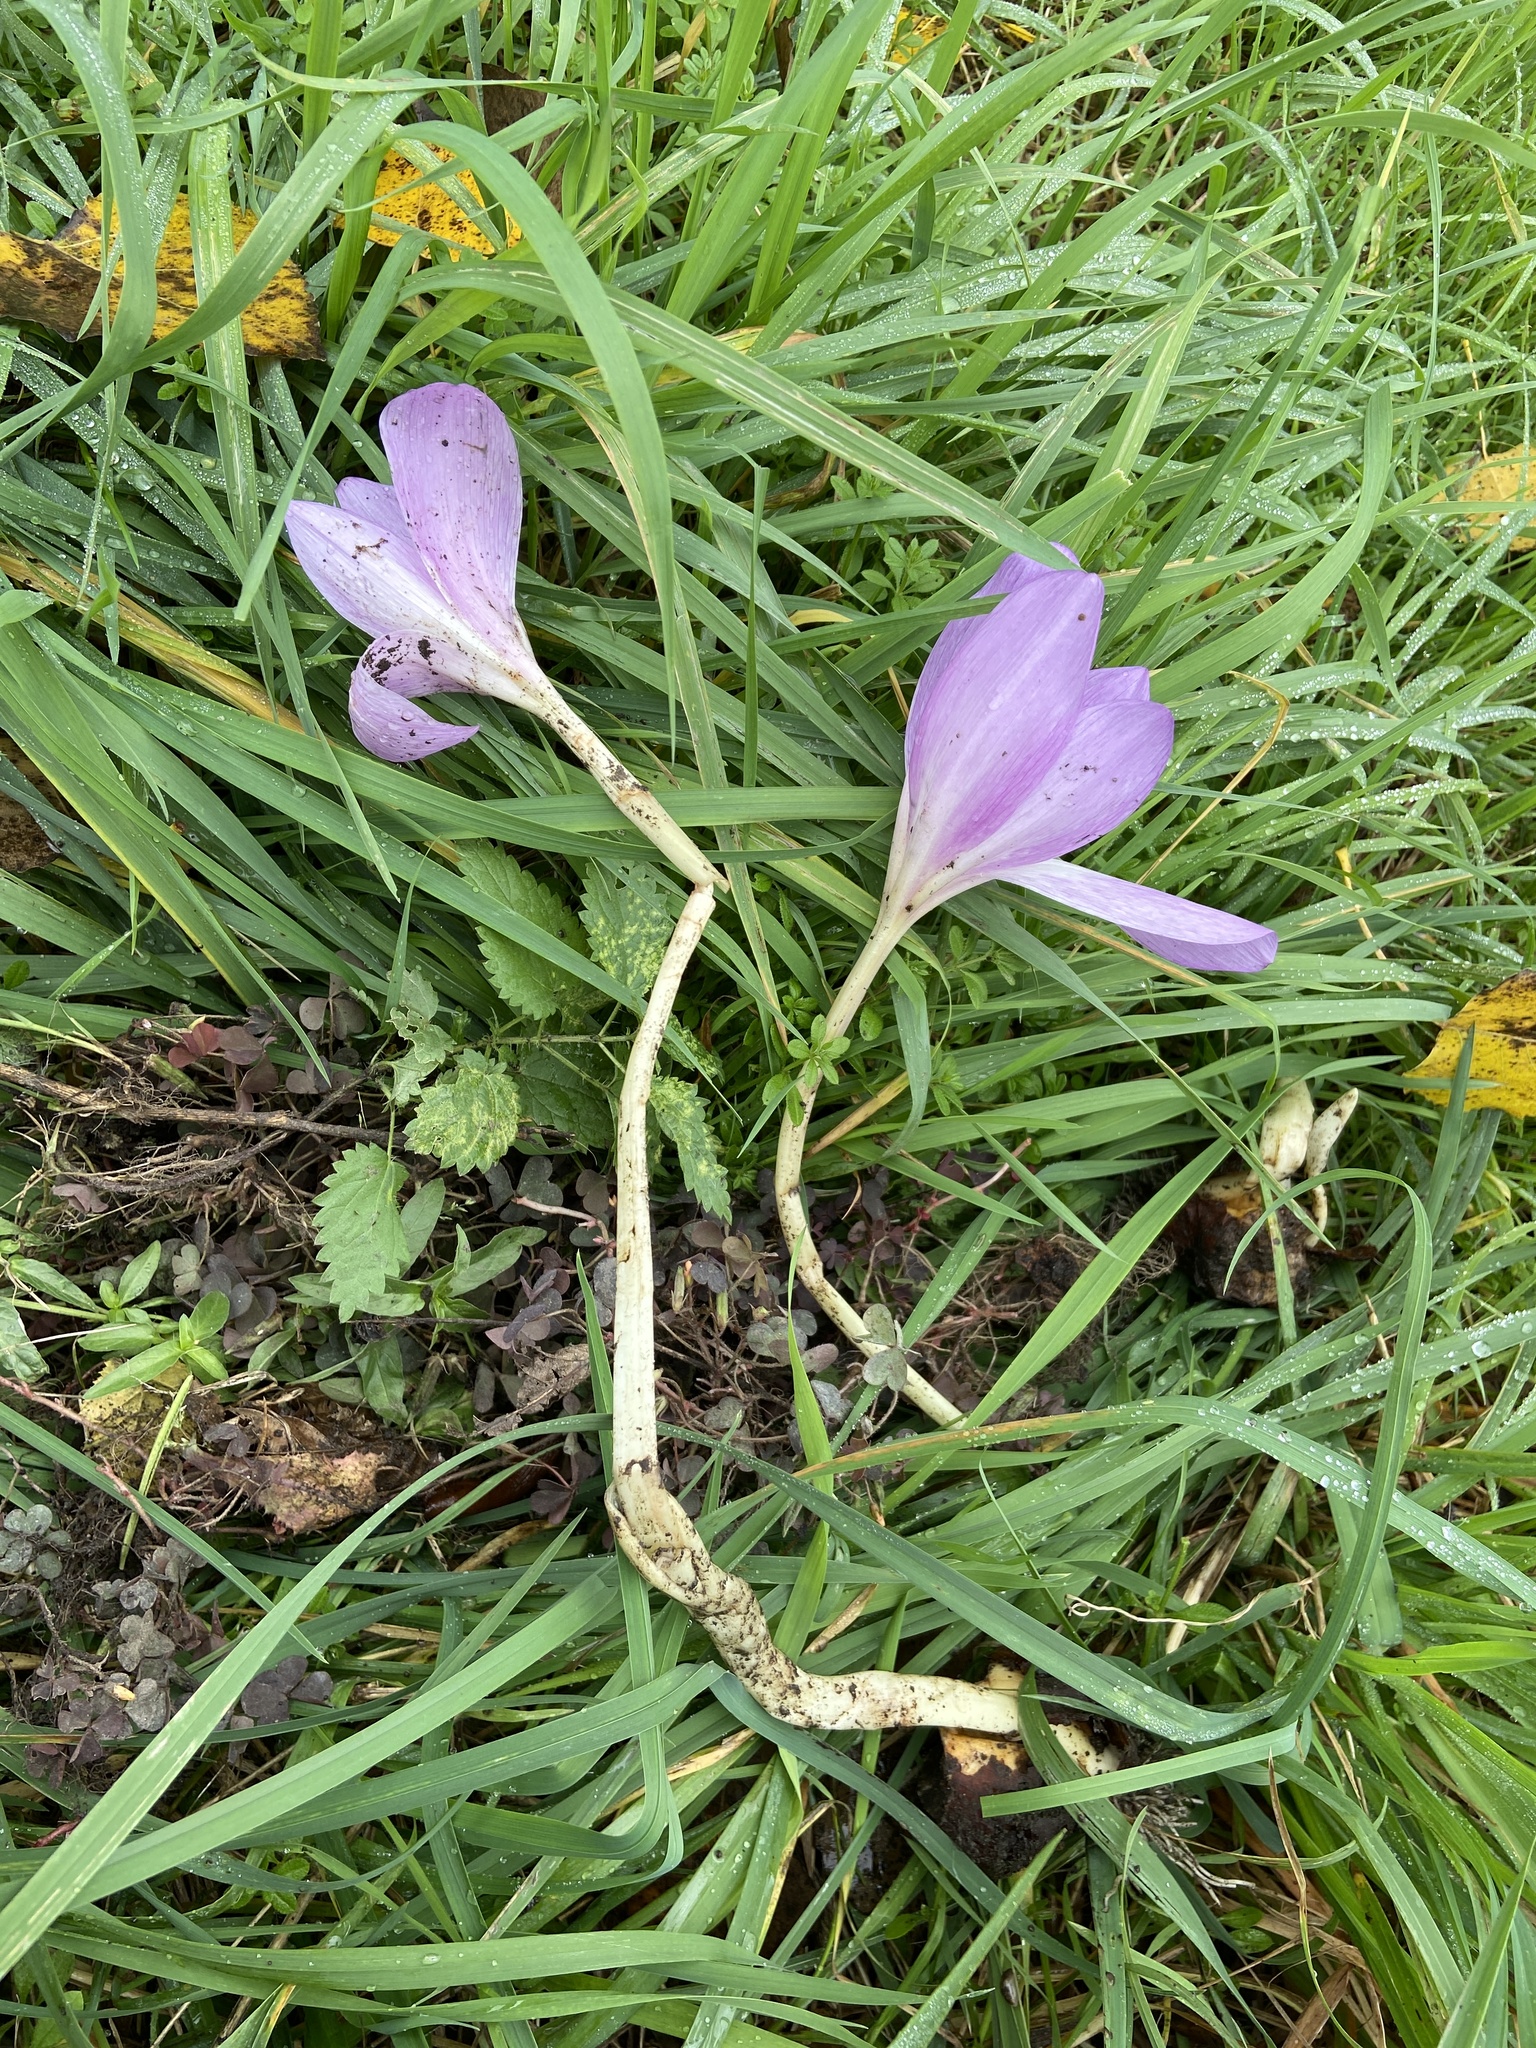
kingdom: Plantae
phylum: Tracheophyta
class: Liliopsida
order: Liliales
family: Colchicaceae
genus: Colchicum
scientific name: Colchicum autumnale
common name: Autumn crocus
